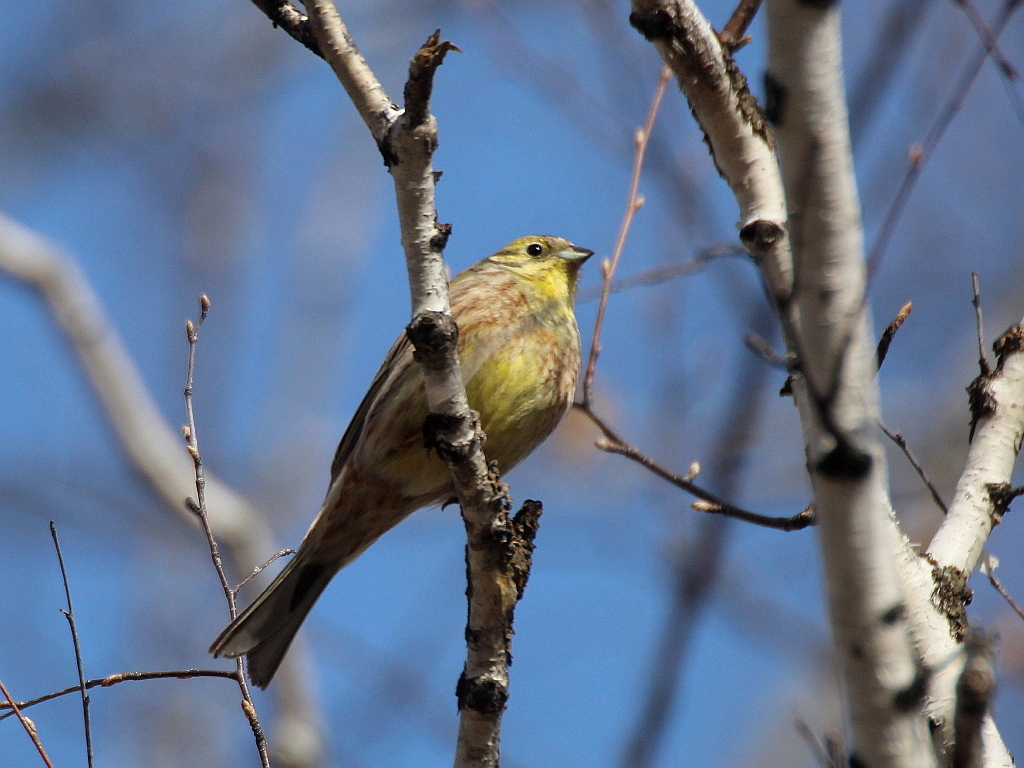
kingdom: Animalia
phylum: Chordata
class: Aves
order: Passeriformes
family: Emberizidae
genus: Emberiza
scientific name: Emberiza citrinella
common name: Yellowhammer
